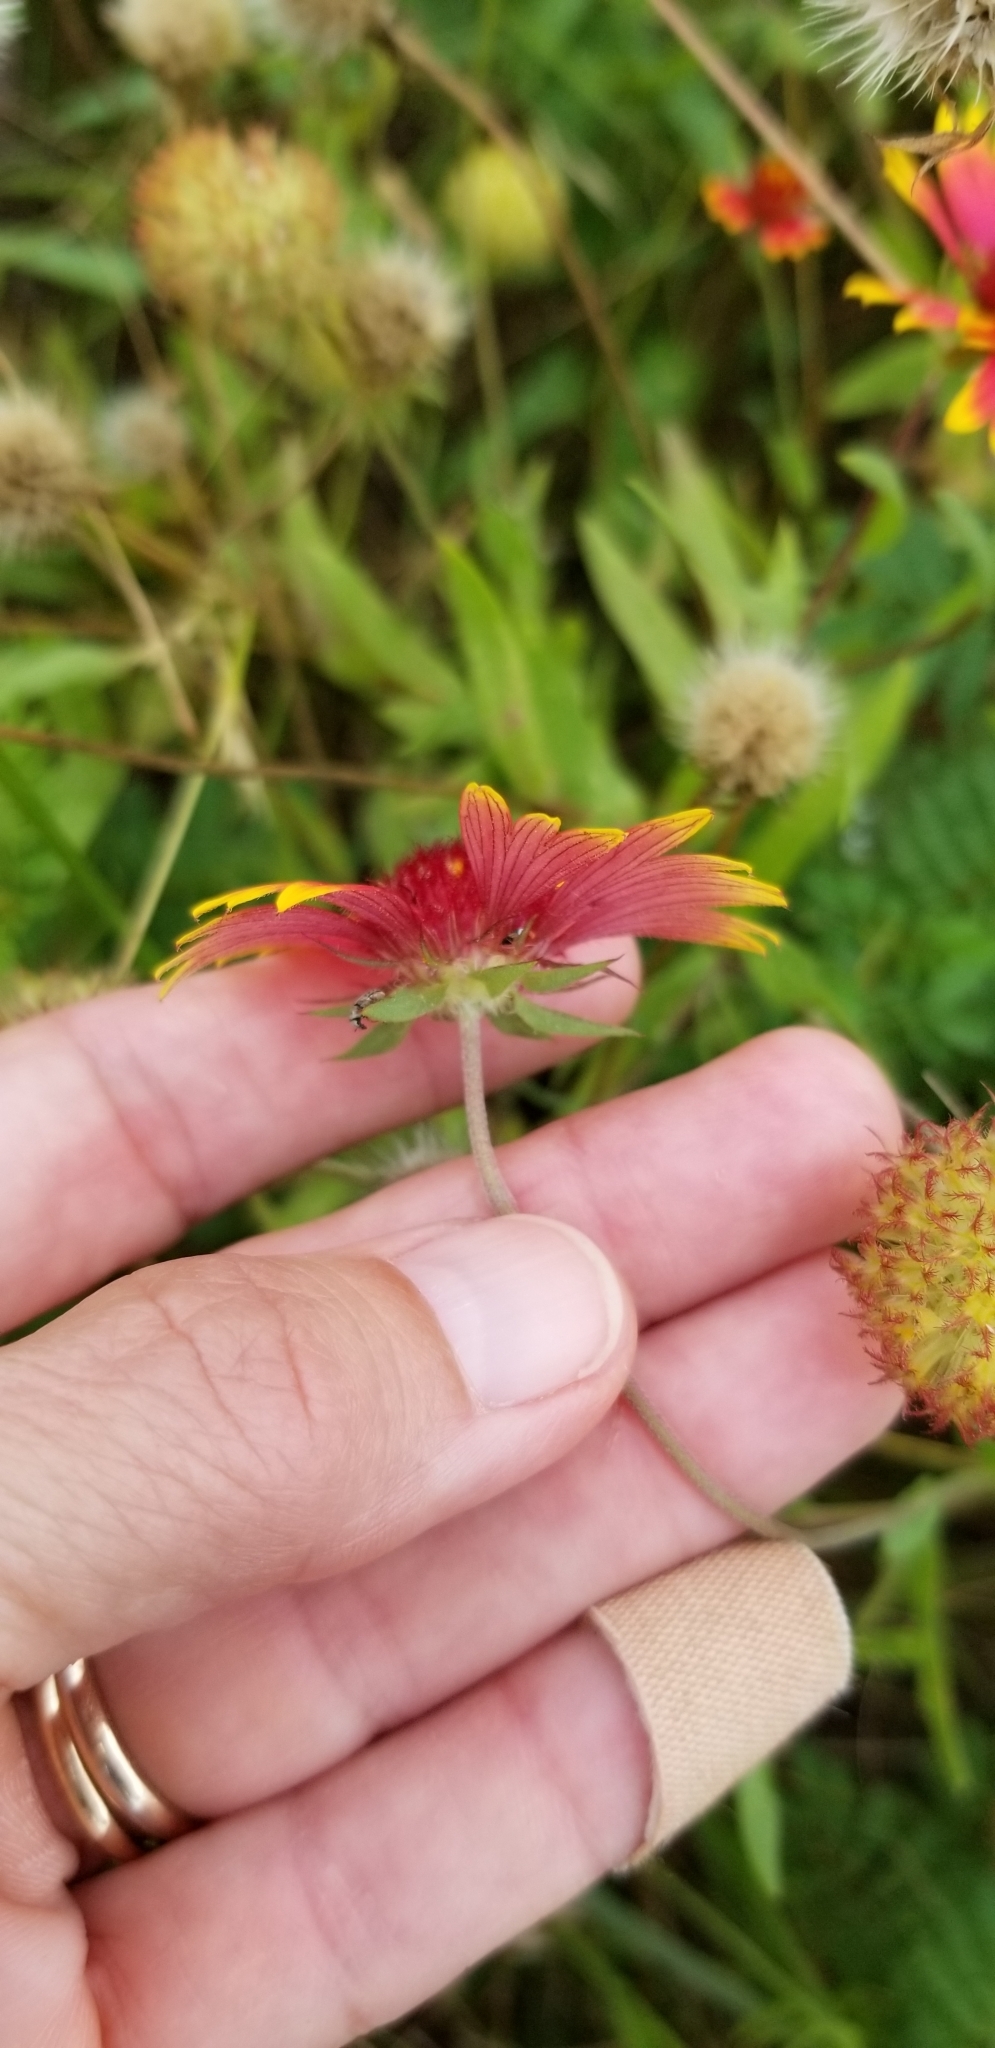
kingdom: Plantae
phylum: Tracheophyta
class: Magnoliopsida
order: Asterales
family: Asteraceae
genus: Gaillardia
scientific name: Gaillardia pulchella
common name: Firewheel
